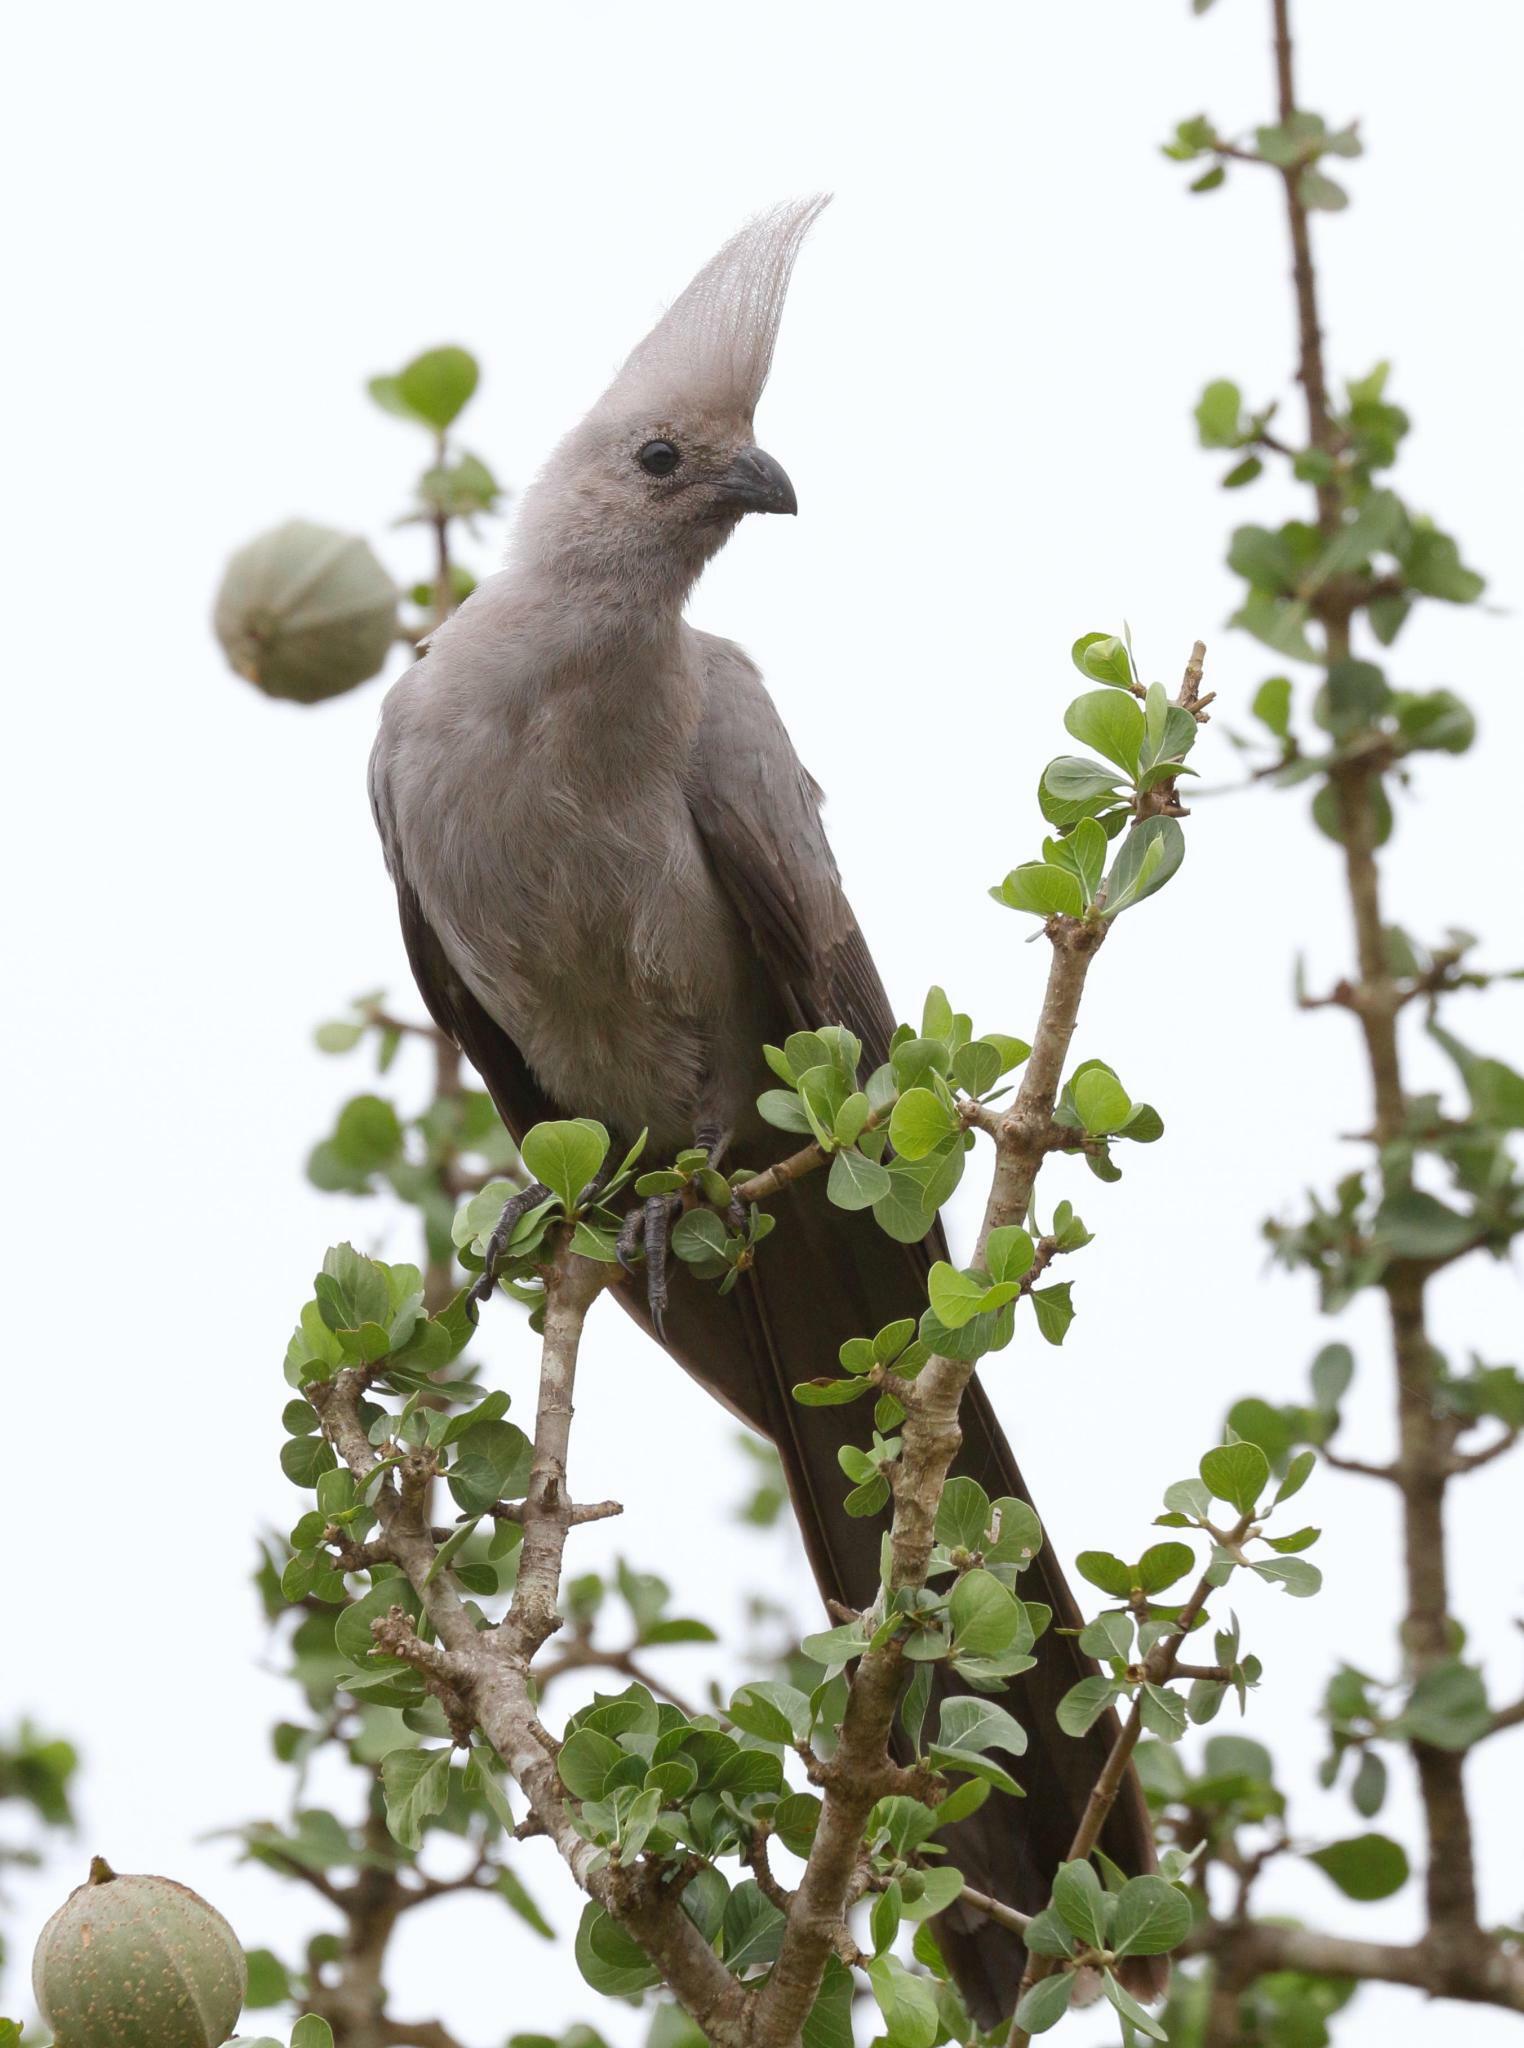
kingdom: Animalia
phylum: Chordata
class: Aves
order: Musophagiformes
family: Musophagidae
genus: Corythaixoides
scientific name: Corythaixoides concolor
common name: Grey go-away-bird
